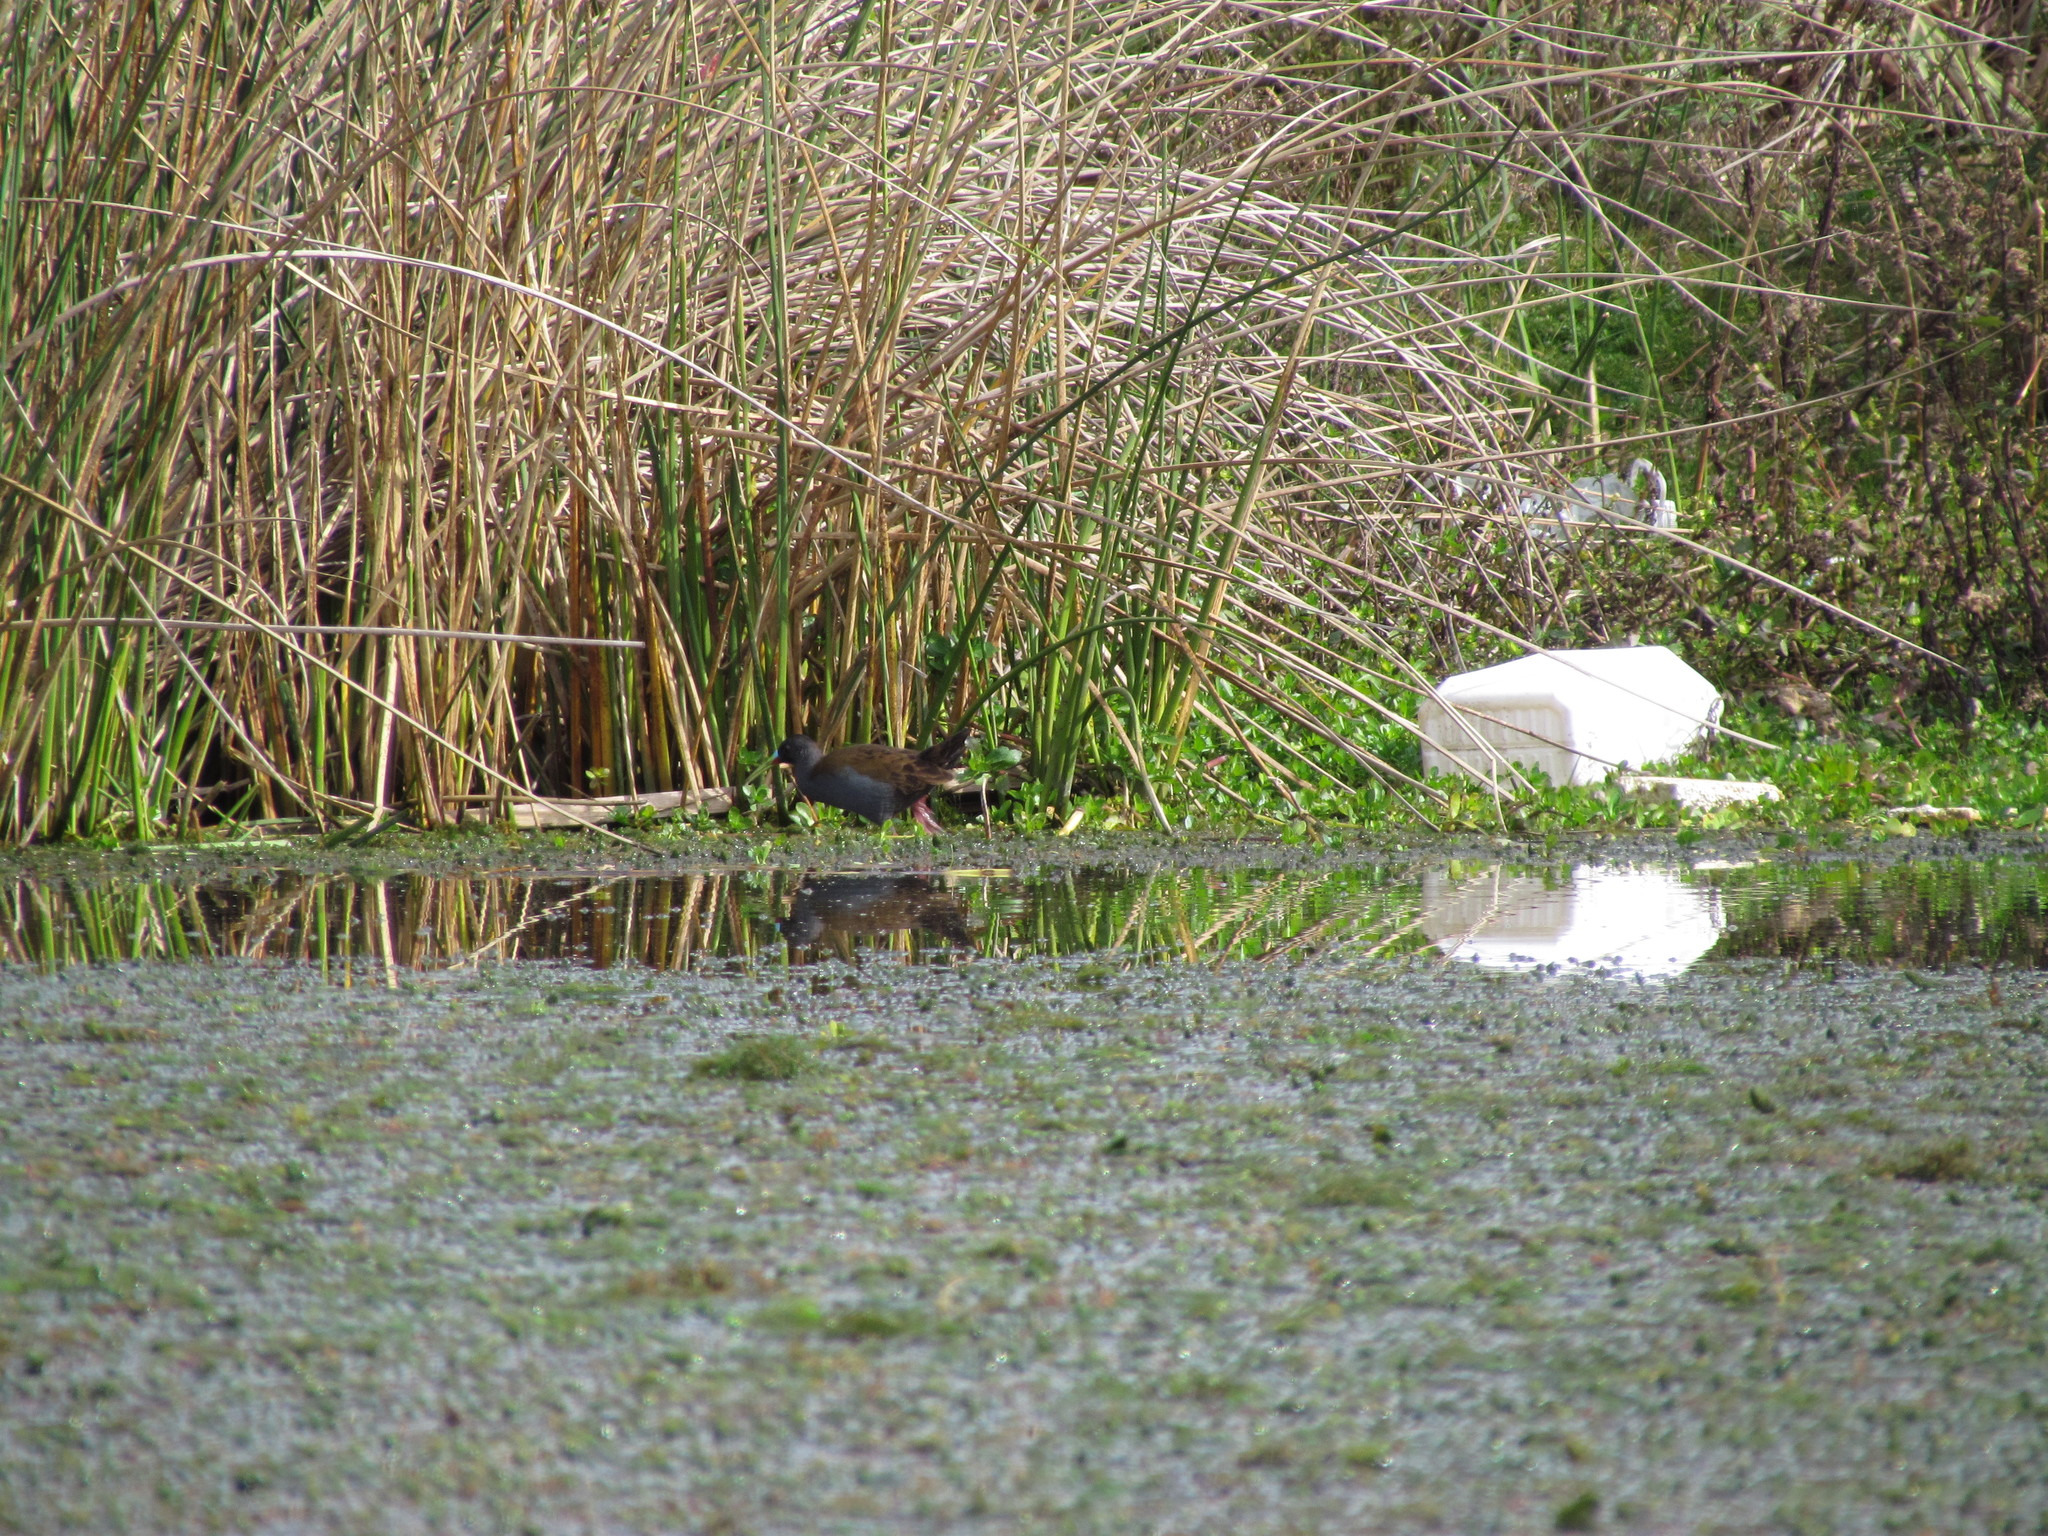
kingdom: Animalia
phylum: Chordata
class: Aves
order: Gruiformes
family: Rallidae
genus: Pardirallus
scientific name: Pardirallus sanguinolentus
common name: Plumbeous rail
